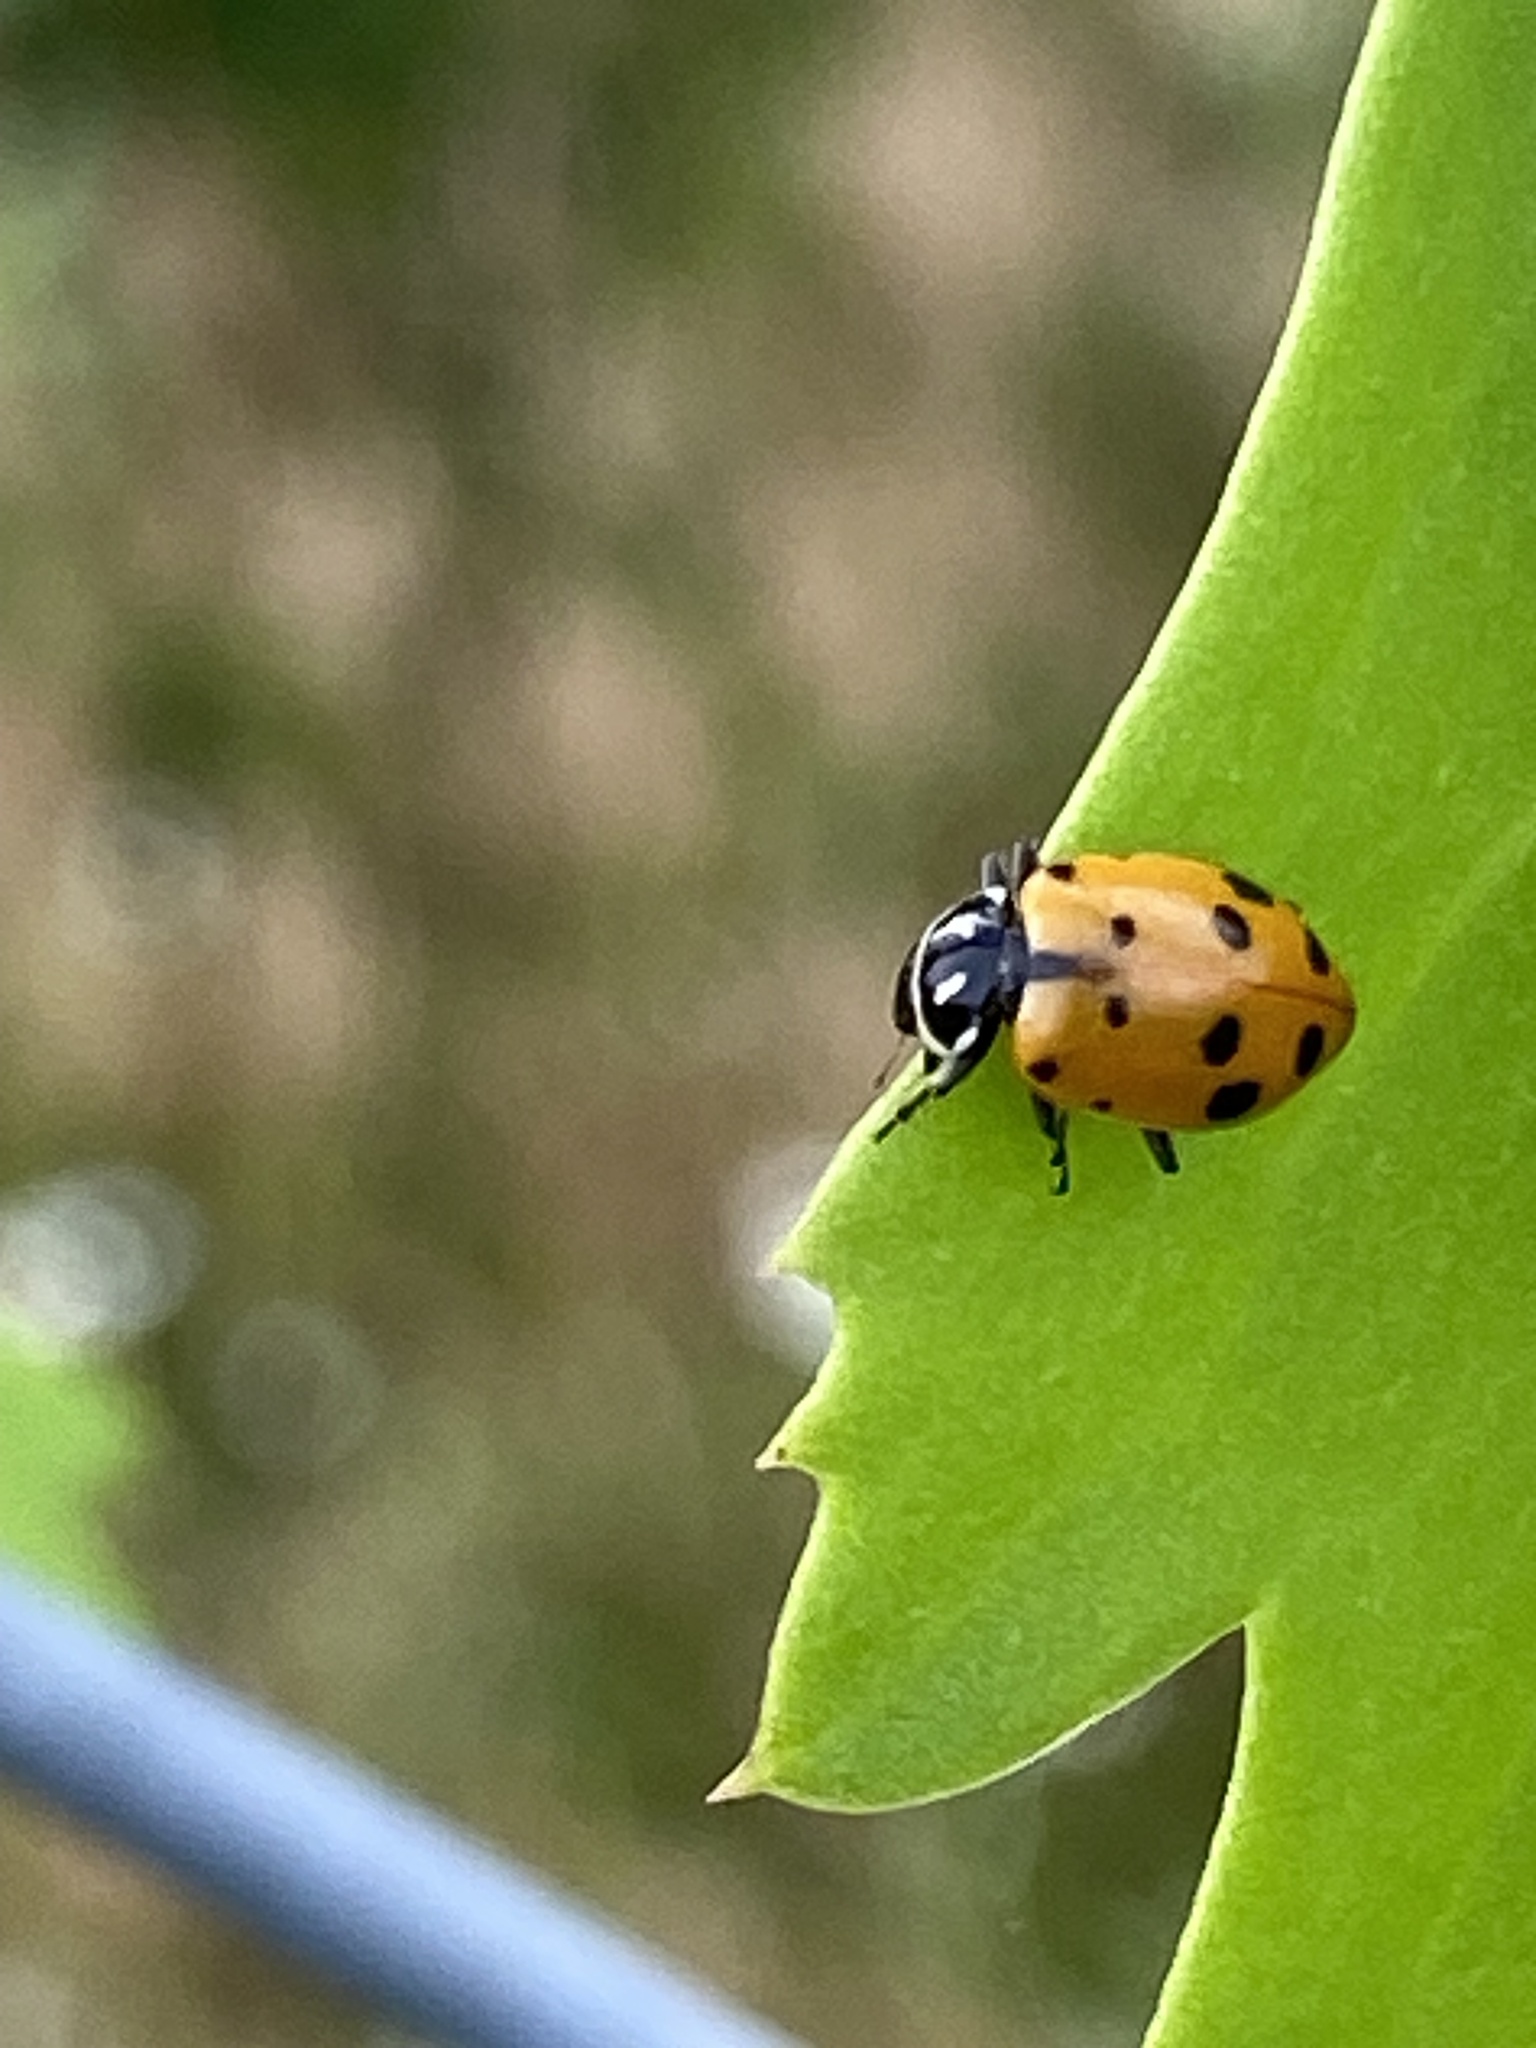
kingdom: Animalia
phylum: Arthropoda
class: Insecta
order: Coleoptera
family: Coccinellidae
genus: Hippodamia
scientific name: Hippodamia convergens
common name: Convergent lady beetle
